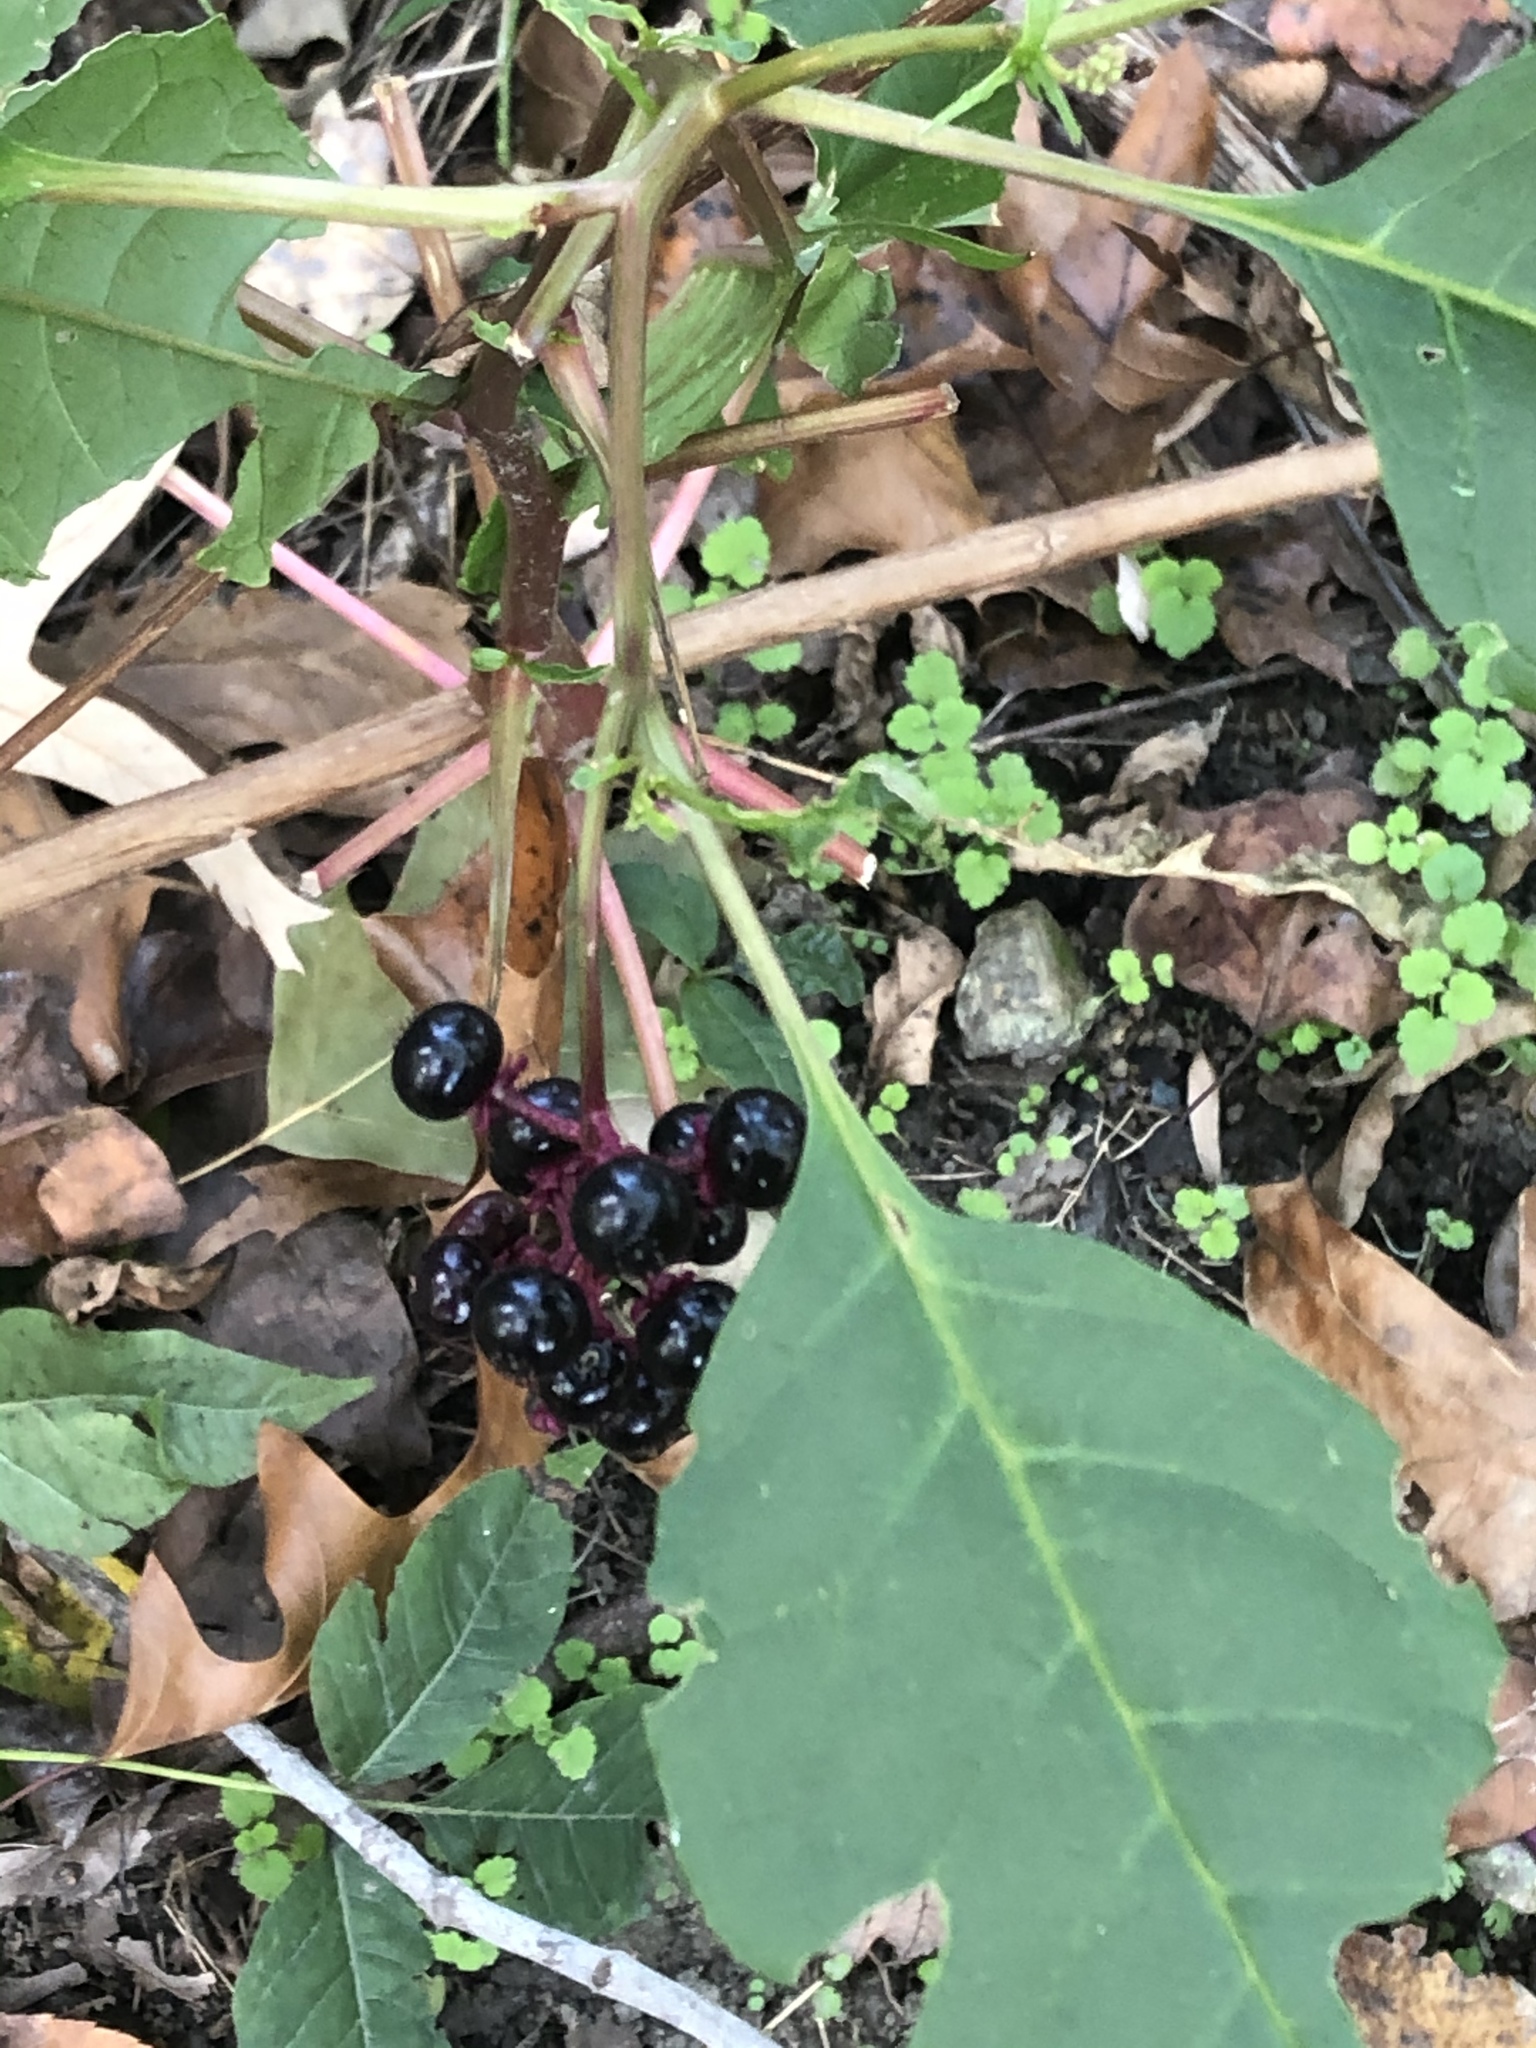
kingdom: Plantae
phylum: Tracheophyta
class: Magnoliopsida
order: Caryophyllales
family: Phytolaccaceae
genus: Phytolacca
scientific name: Phytolacca americana
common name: American pokeweed
